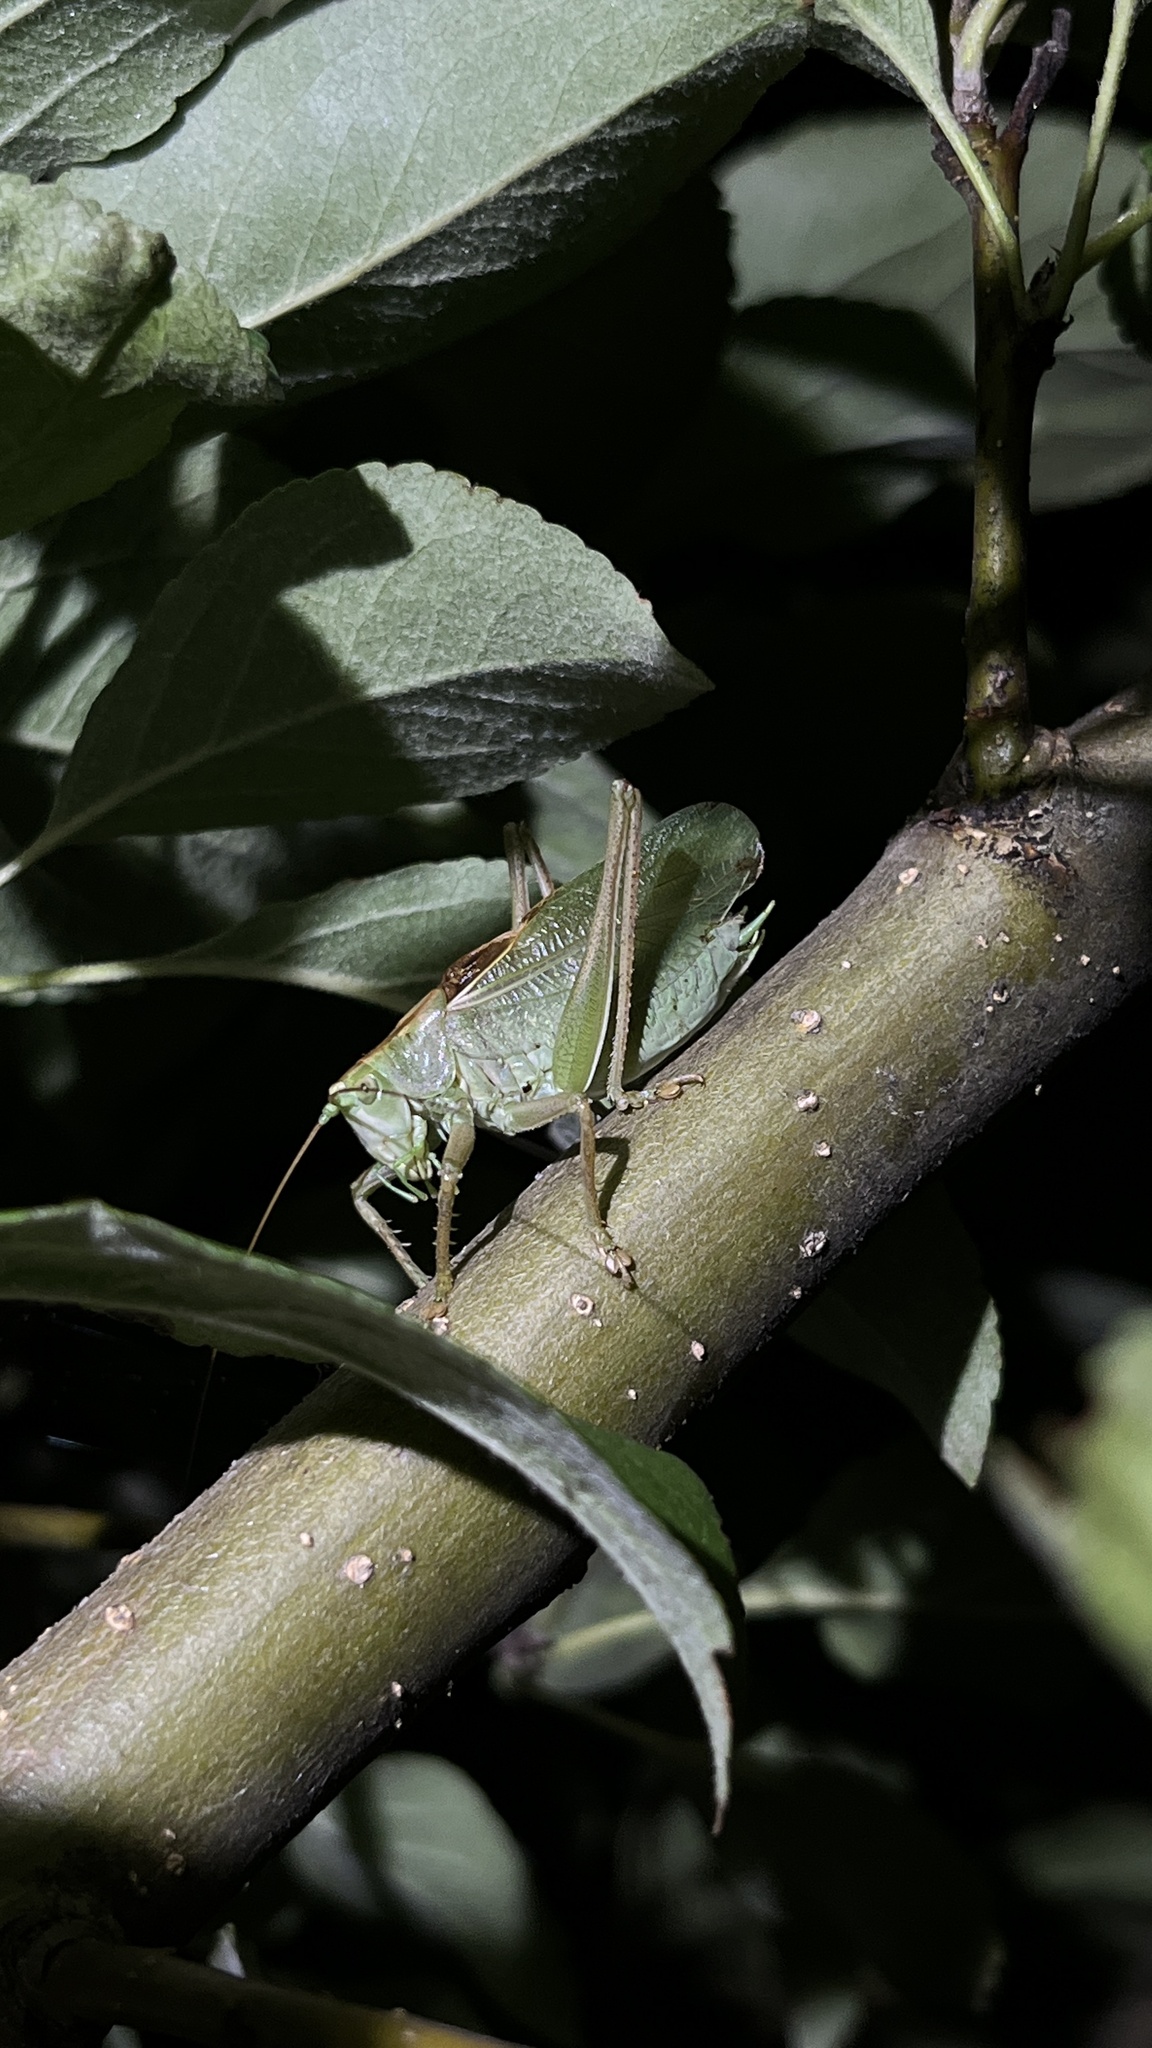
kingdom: Animalia
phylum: Arthropoda
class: Insecta
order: Orthoptera
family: Tettigoniidae
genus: Tettigonia
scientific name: Tettigonia cantans
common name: Upland green bush-cricket
